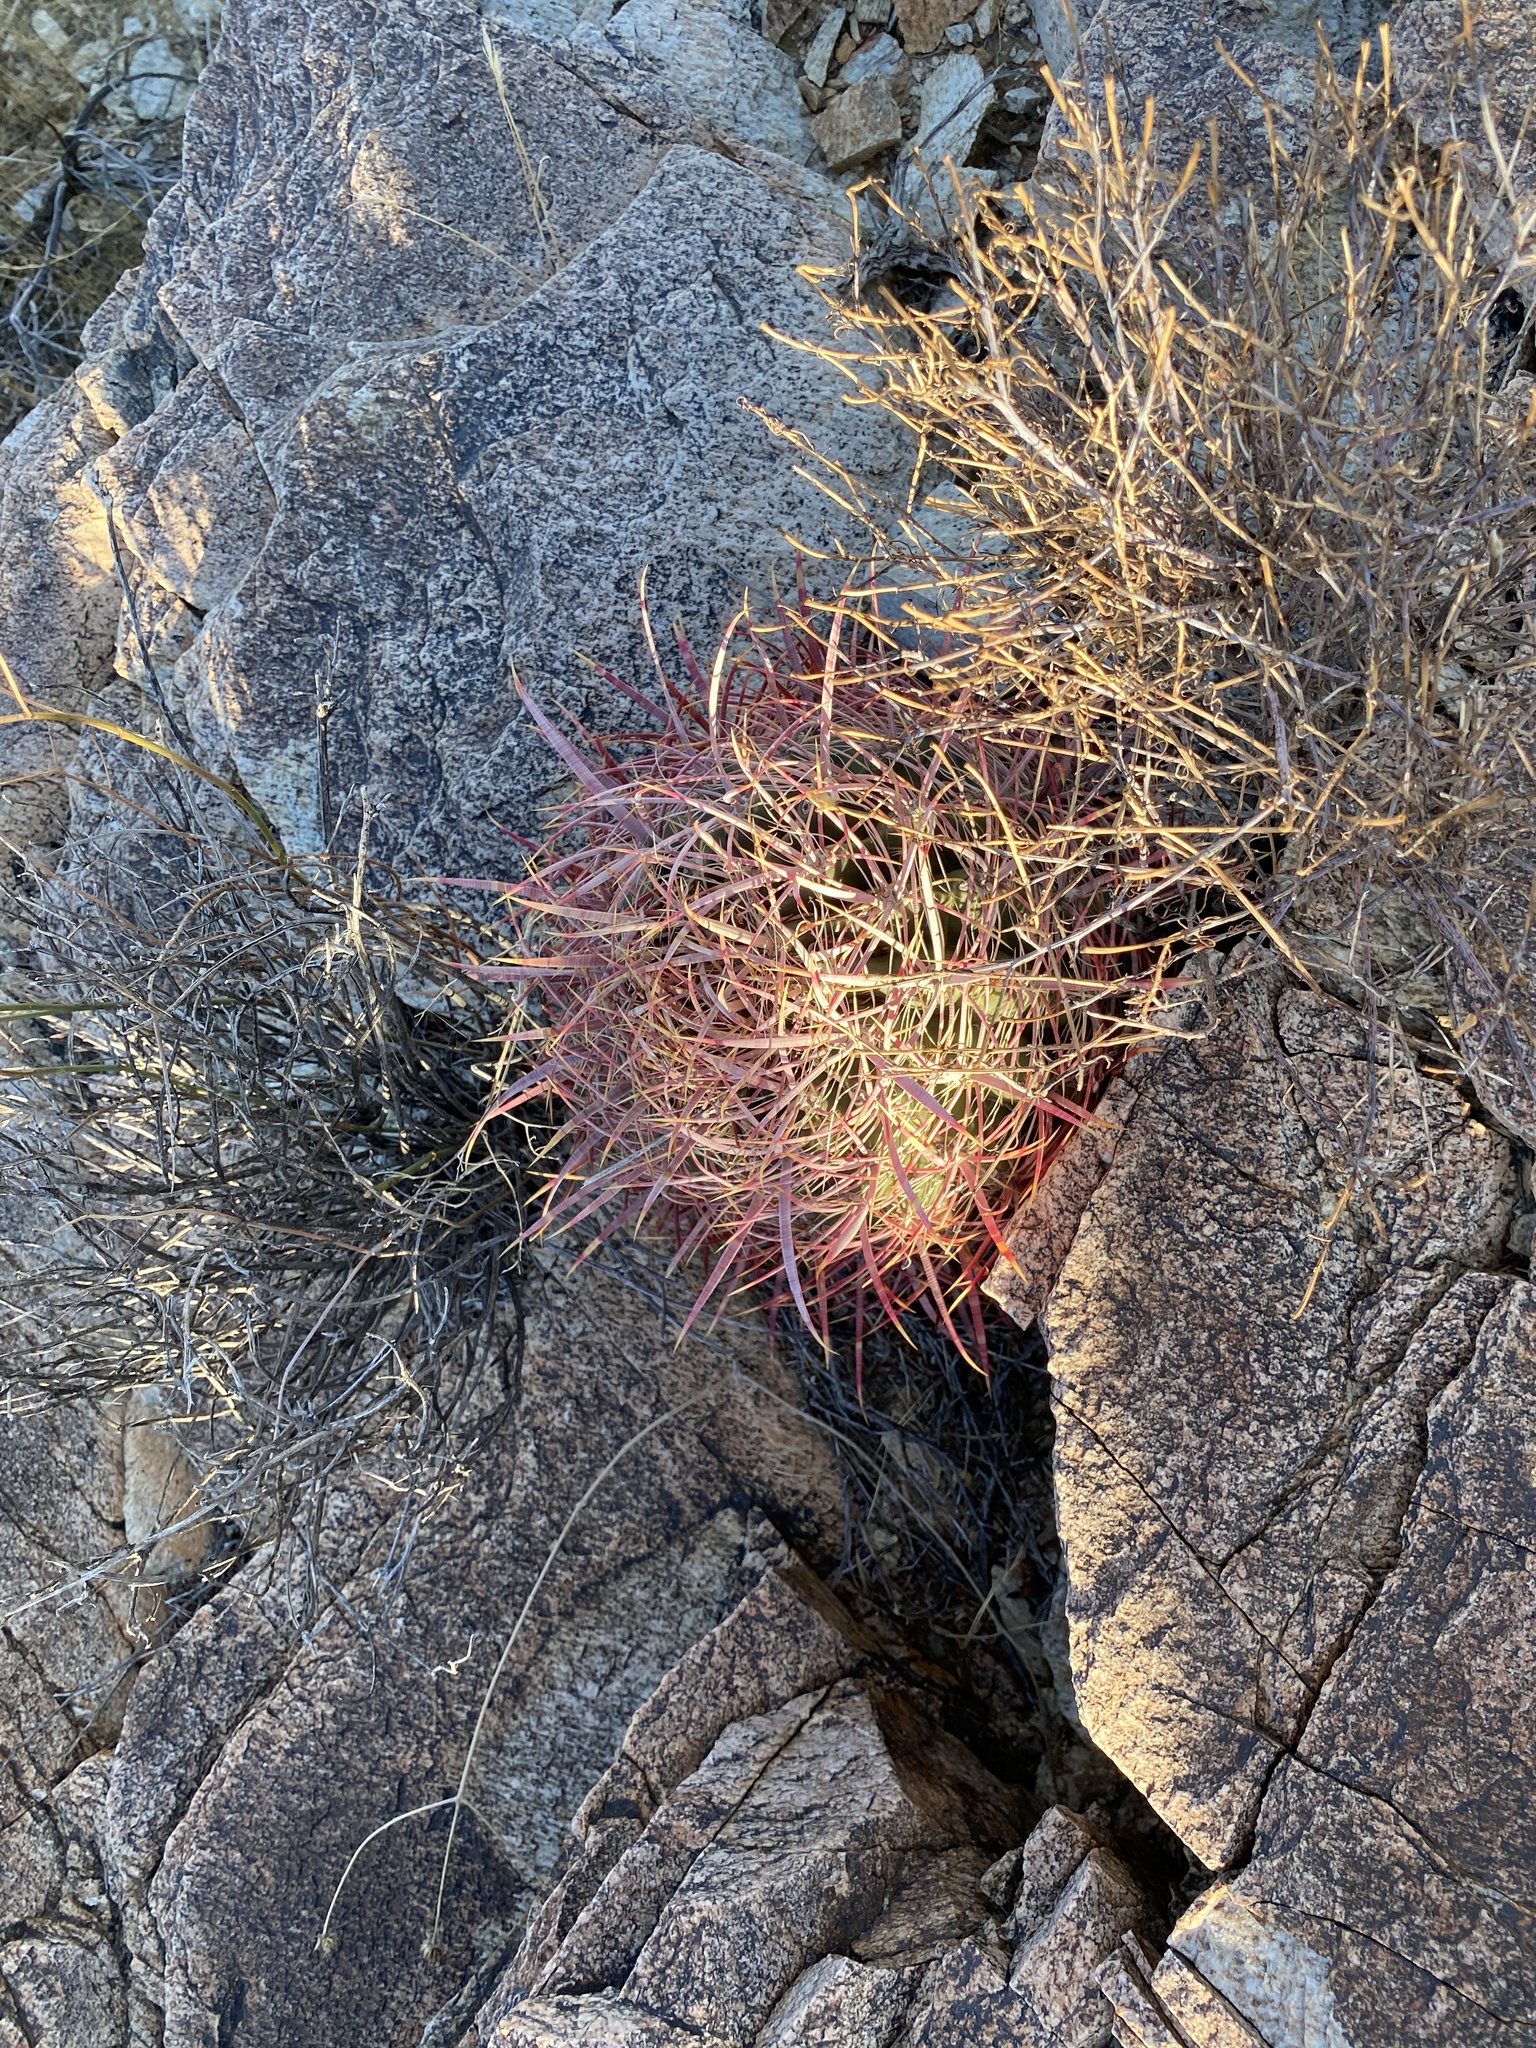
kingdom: Plantae
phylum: Tracheophyta
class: Magnoliopsida
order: Caryophyllales
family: Cactaceae
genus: Ferocactus
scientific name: Ferocactus cylindraceus
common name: California barrel cactus
